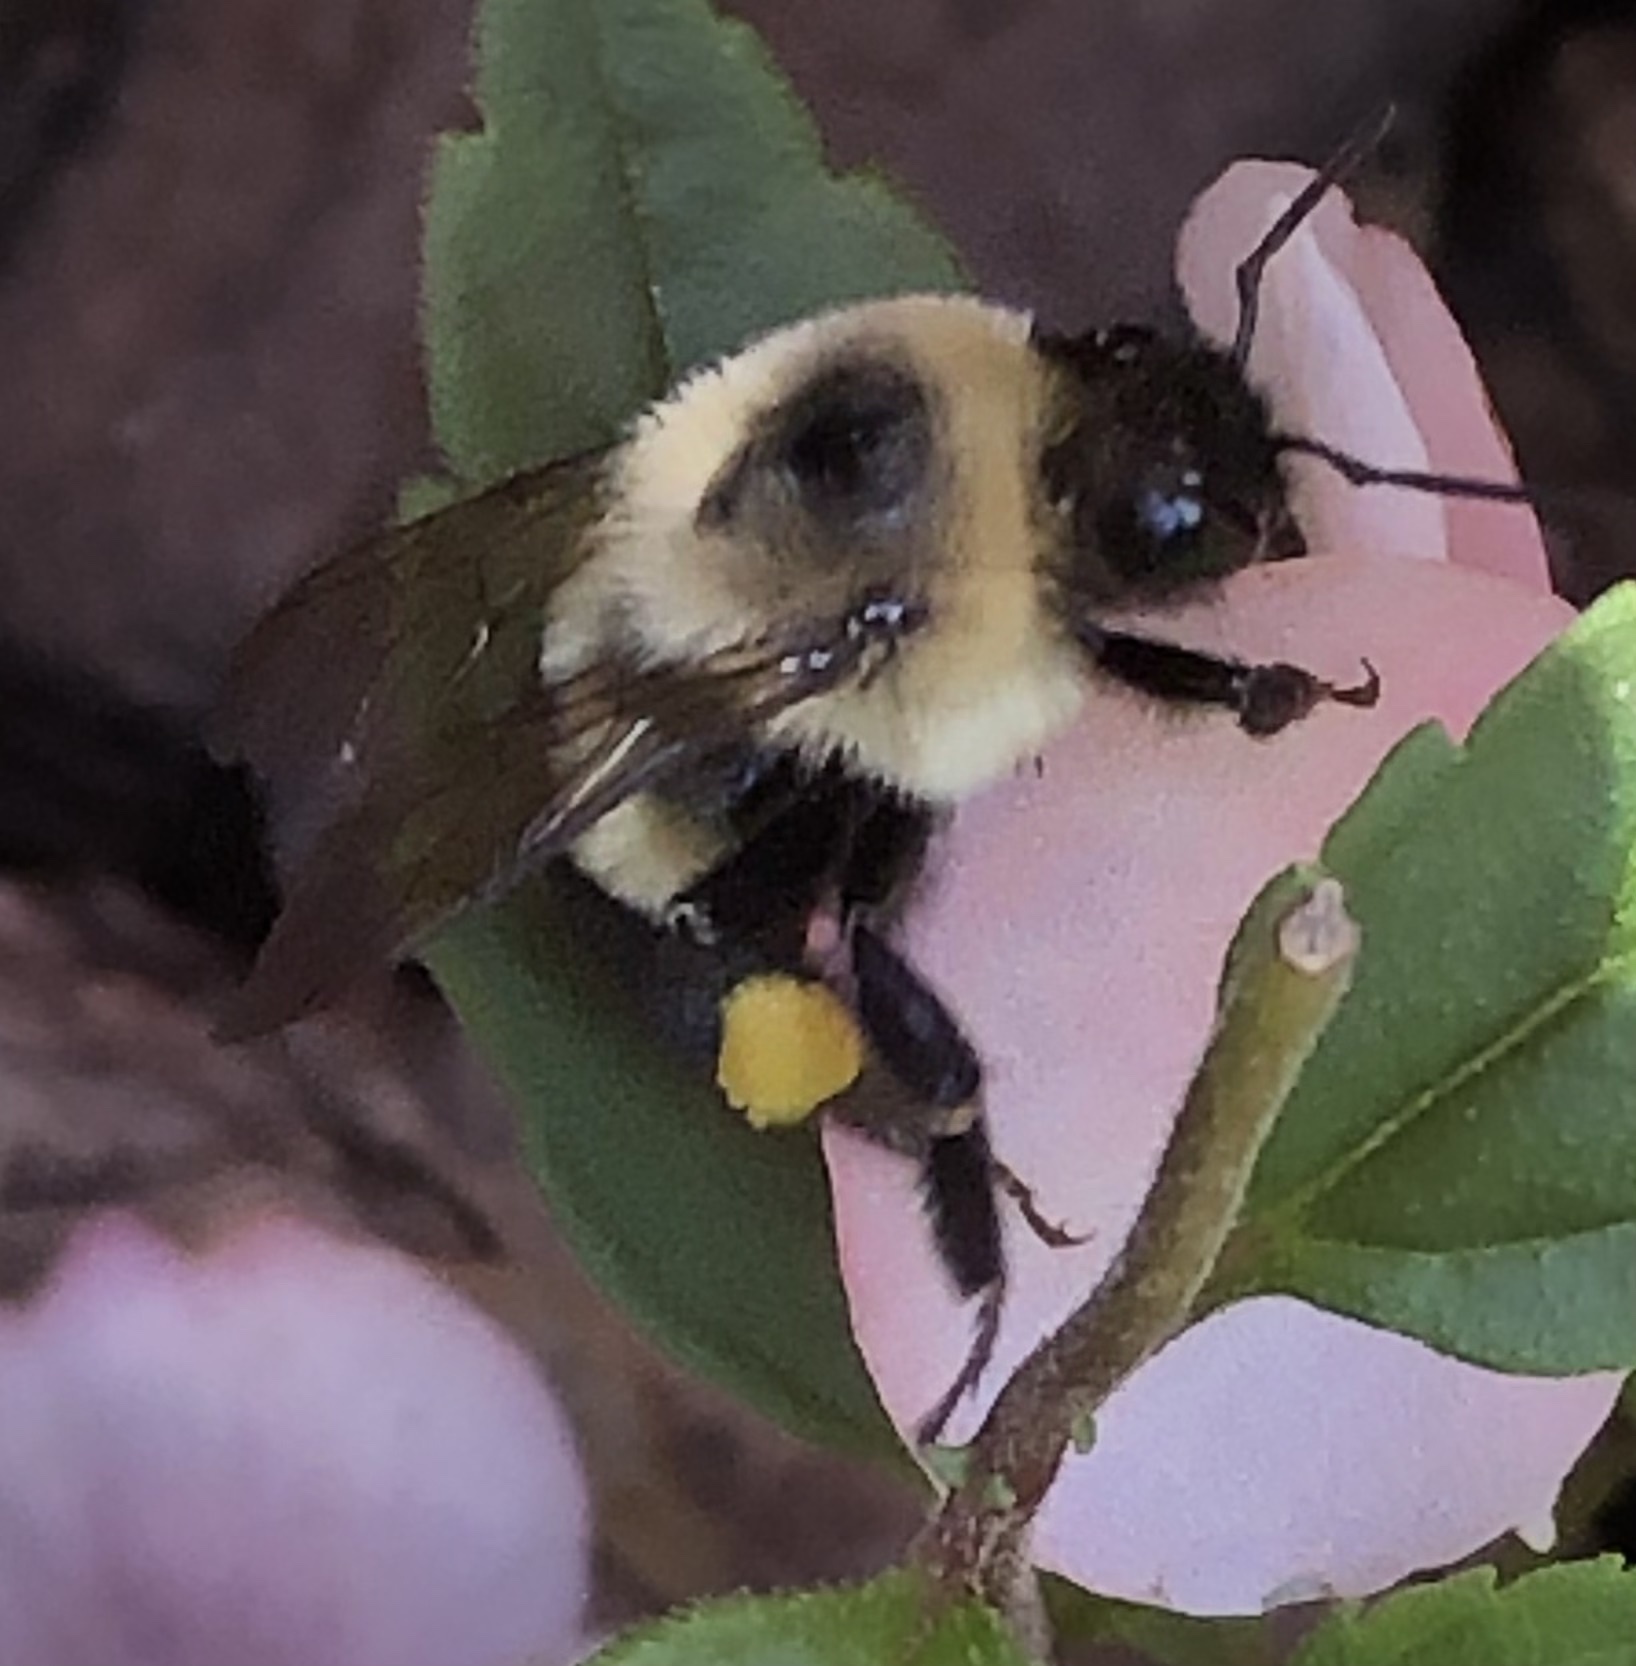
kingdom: Animalia
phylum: Arthropoda
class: Insecta
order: Hymenoptera
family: Apidae
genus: Bombus
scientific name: Bombus impatiens
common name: Common eastern bumble bee
